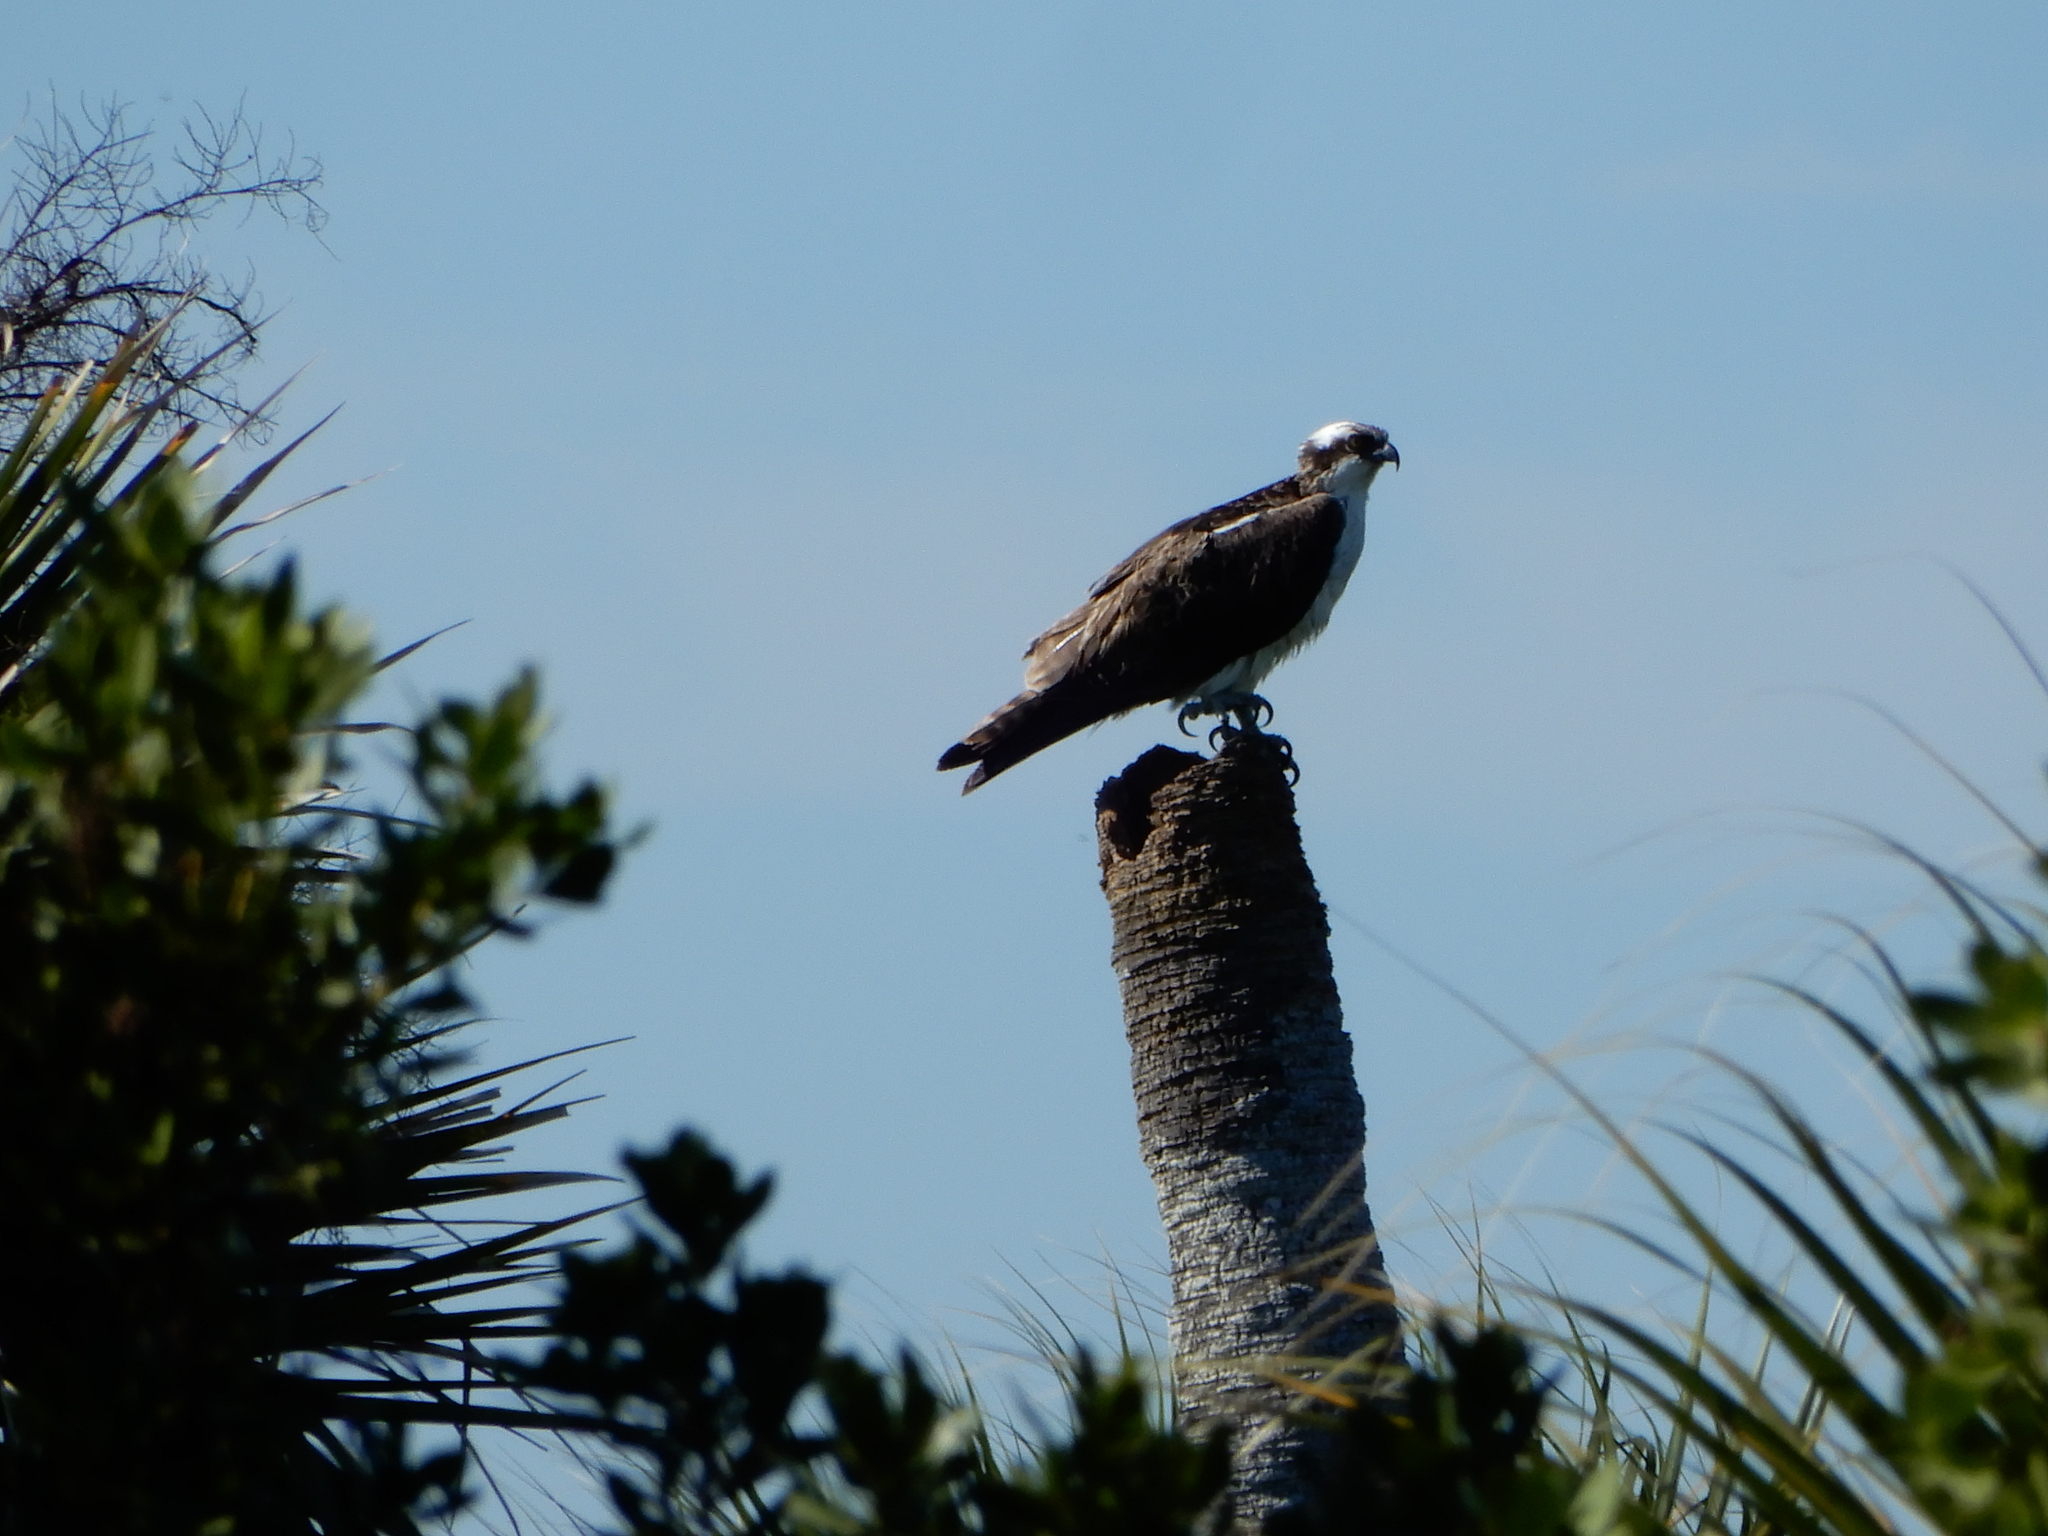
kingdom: Animalia
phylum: Chordata
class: Aves
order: Accipitriformes
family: Pandionidae
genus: Pandion
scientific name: Pandion haliaetus
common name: Osprey
